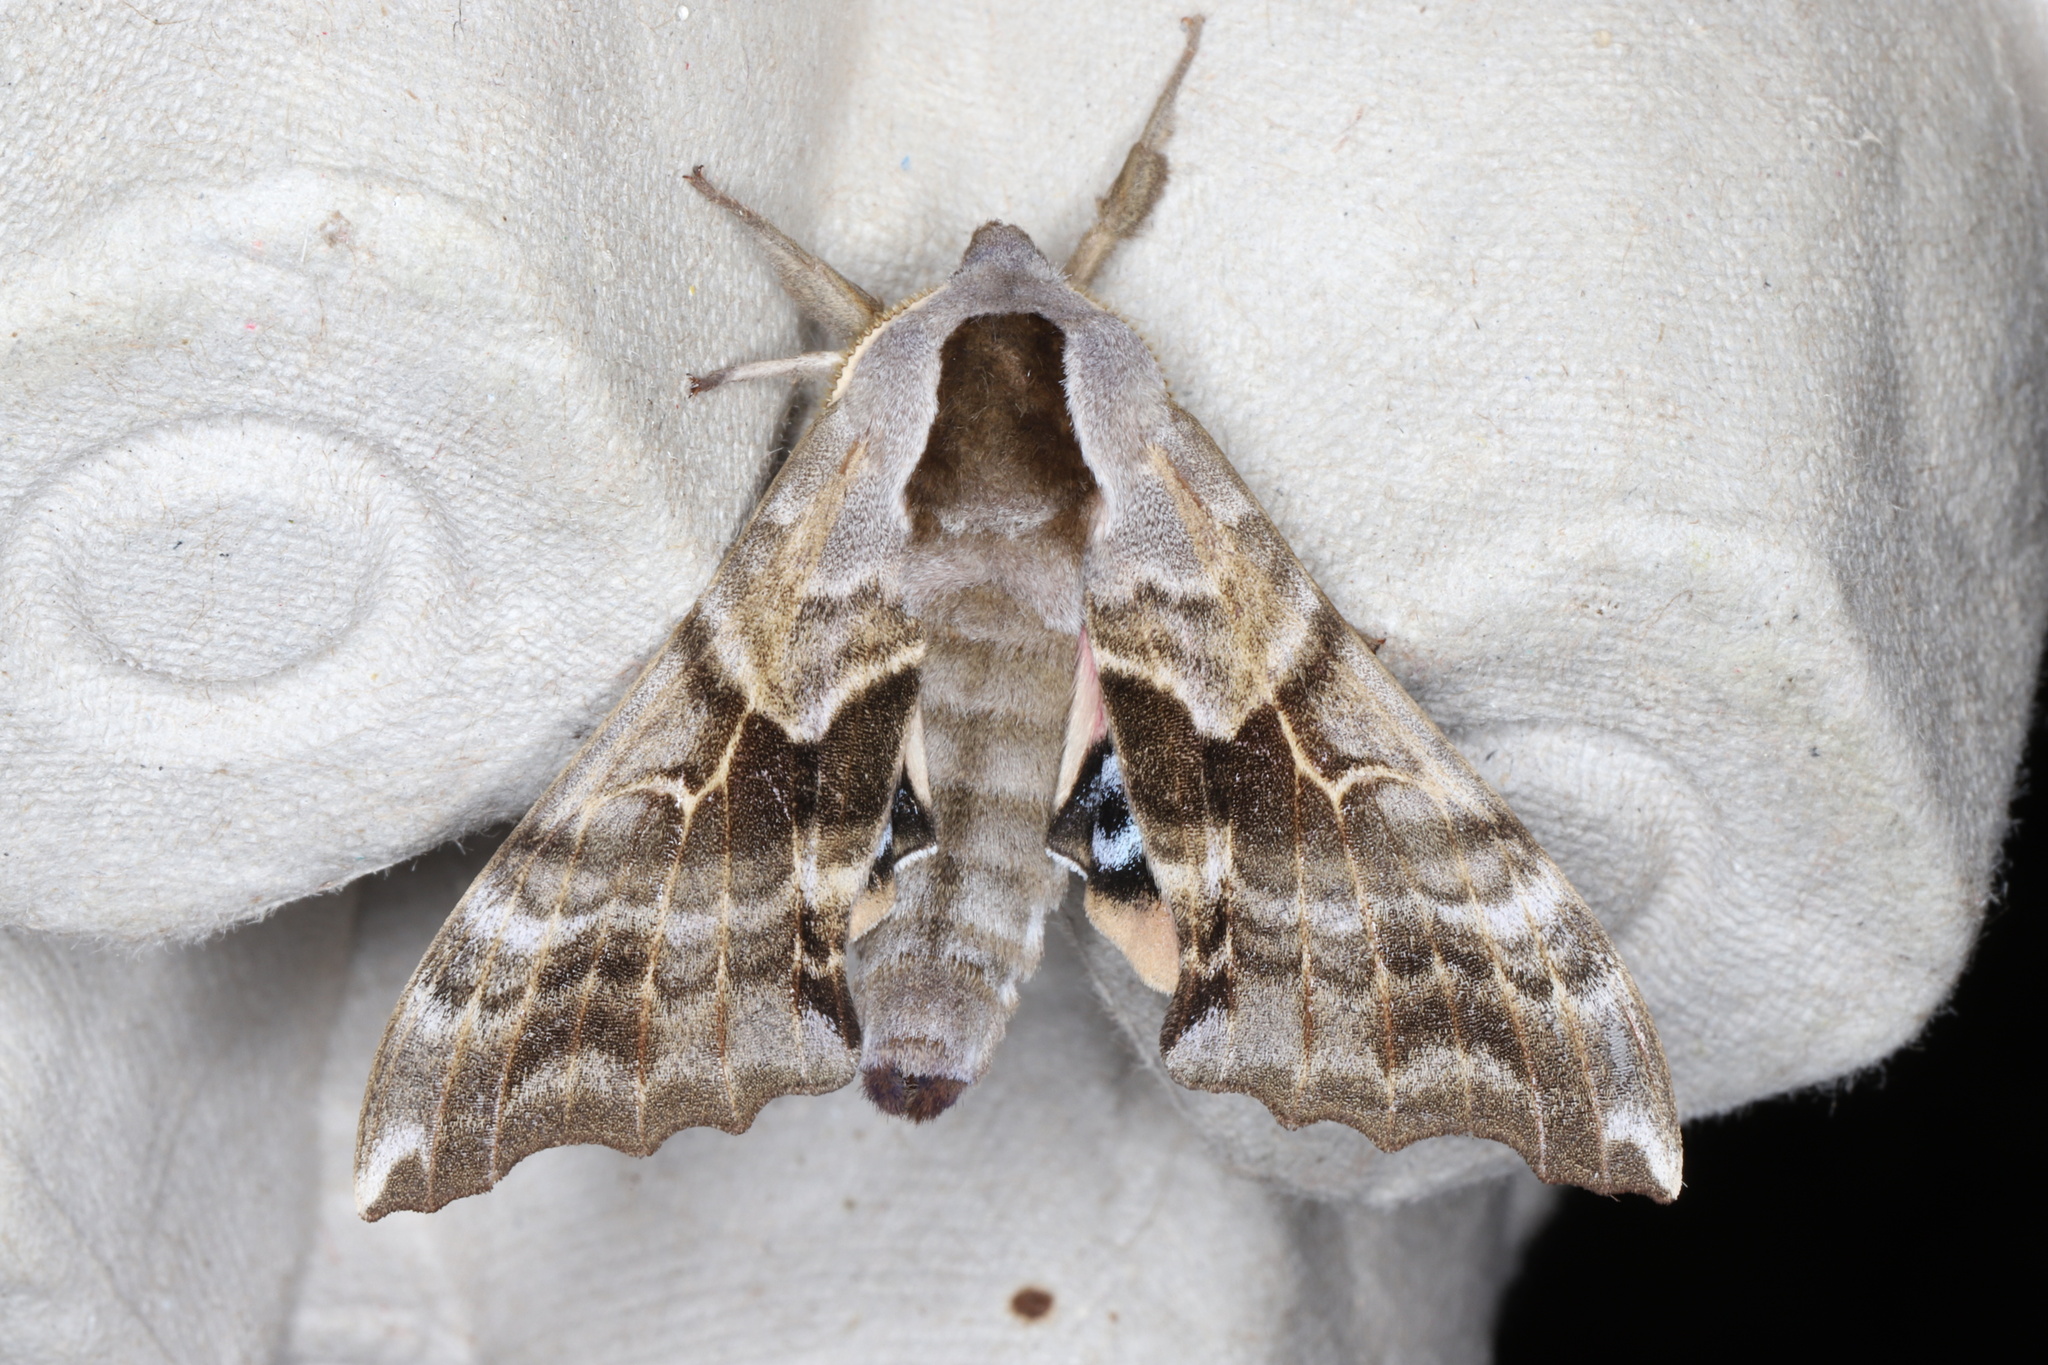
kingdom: Animalia
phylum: Arthropoda
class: Insecta
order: Lepidoptera
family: Sphingidae
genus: Smerinthus
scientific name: Smerinthus cerisyi
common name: Cerisy's sphinx moth
